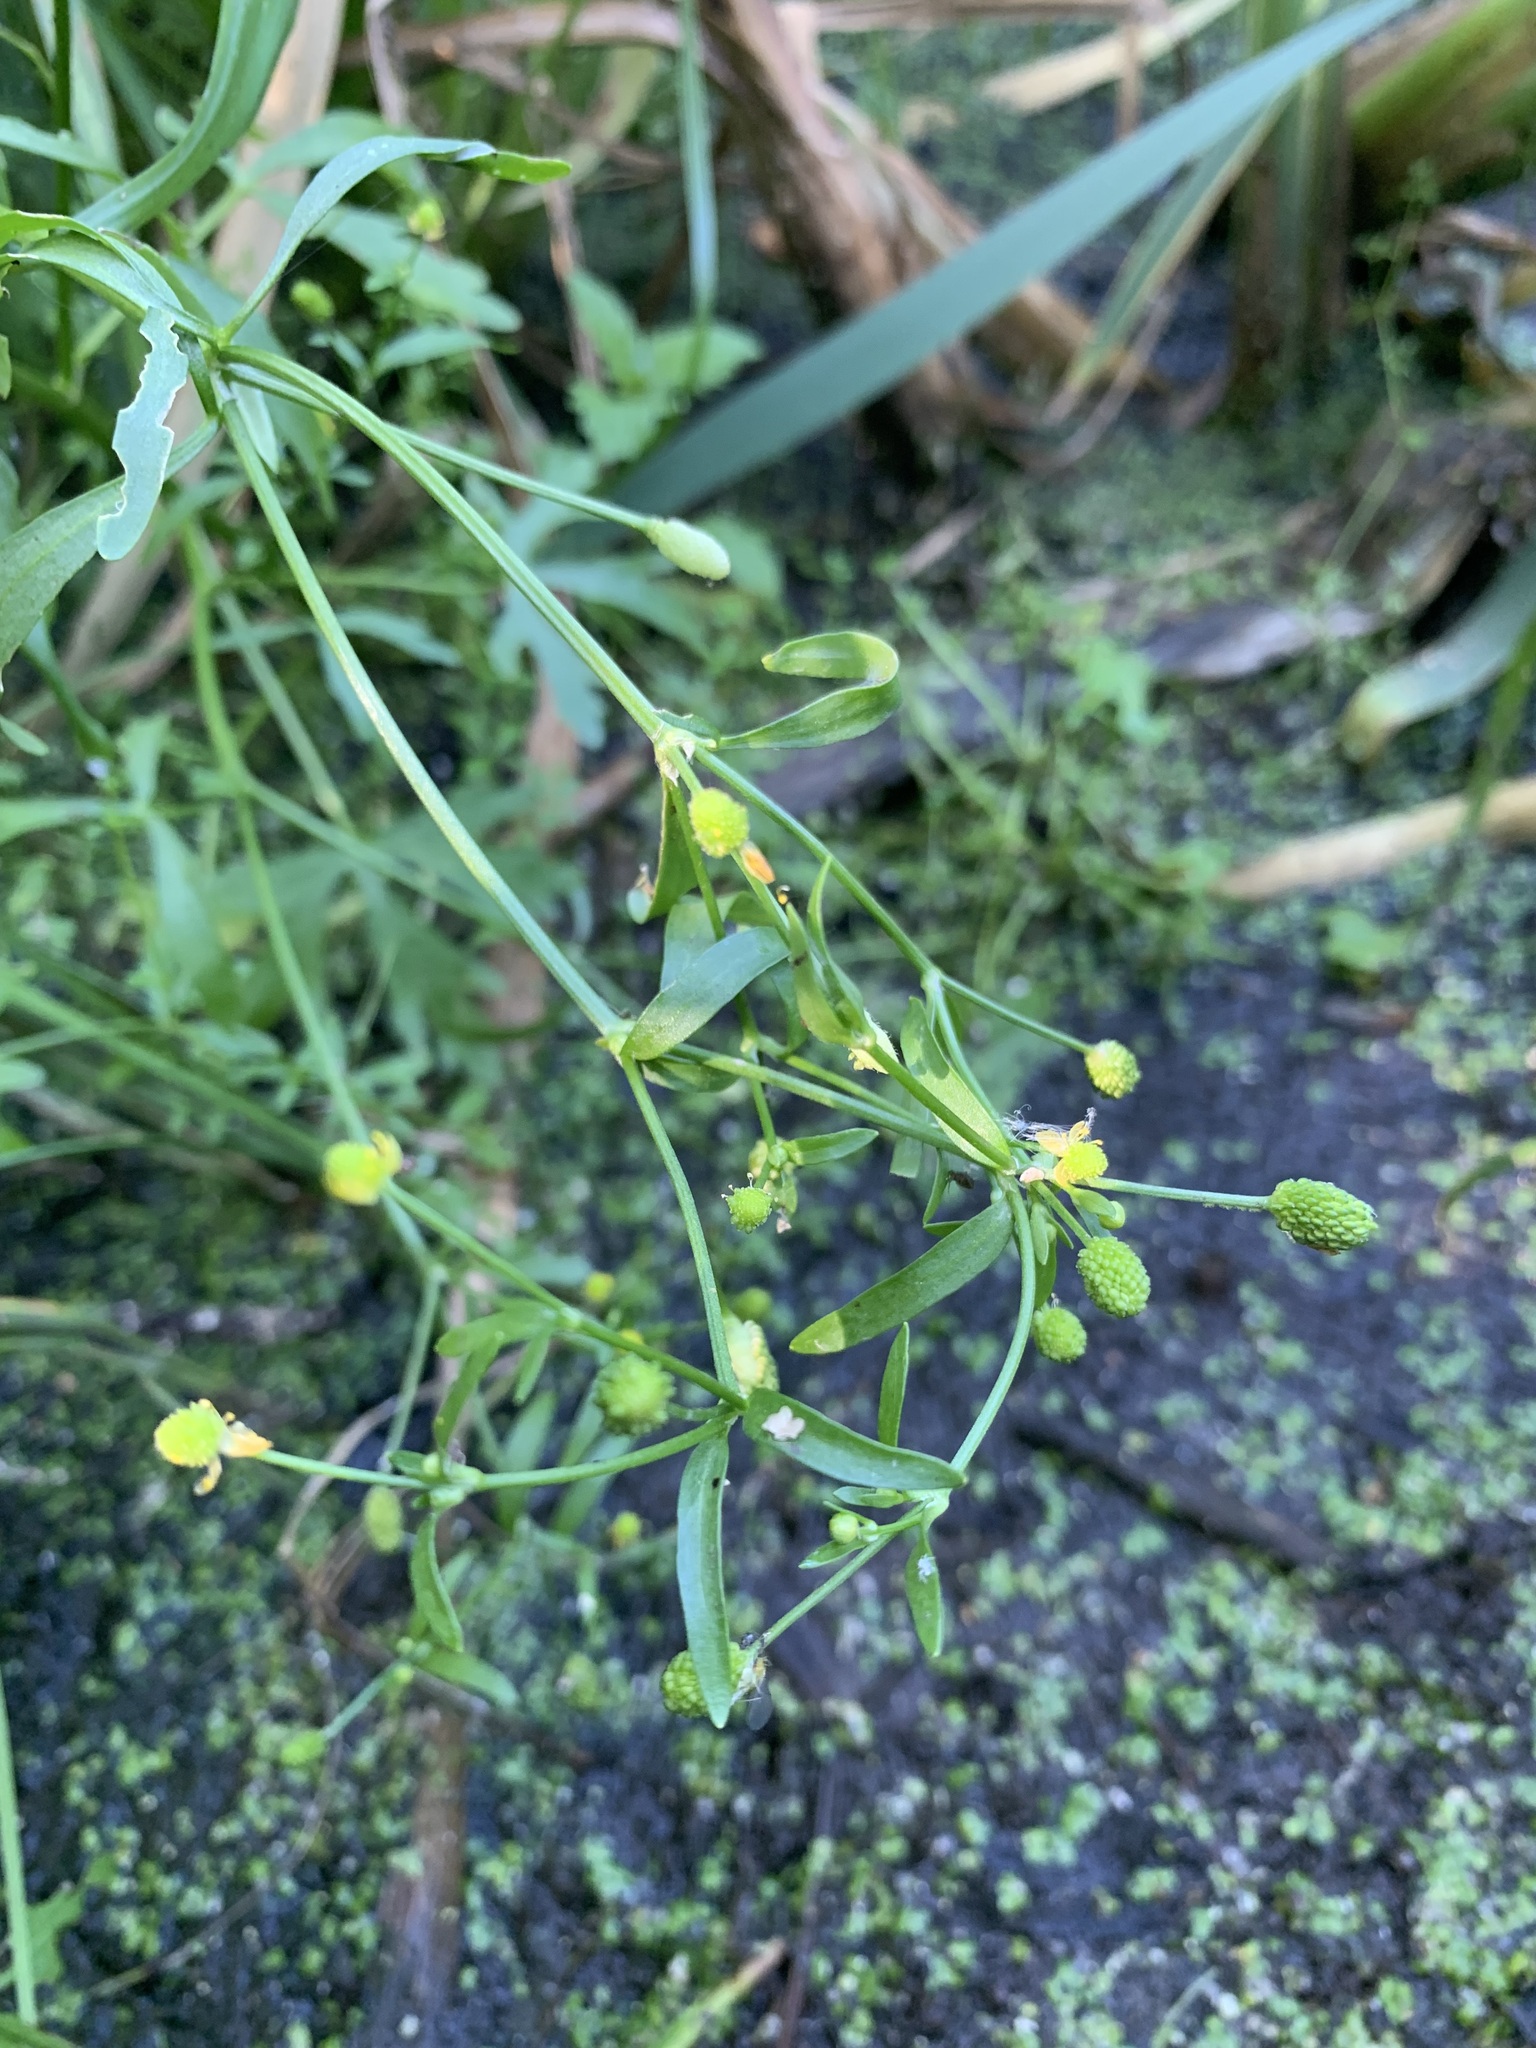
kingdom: Plantae
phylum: Tracheophyta
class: Magnoliopsida
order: Ranunculales
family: Ranunculaceae
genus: Ranunculus
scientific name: Ranunculus sceleratus
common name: Celery-leaved buttercup
